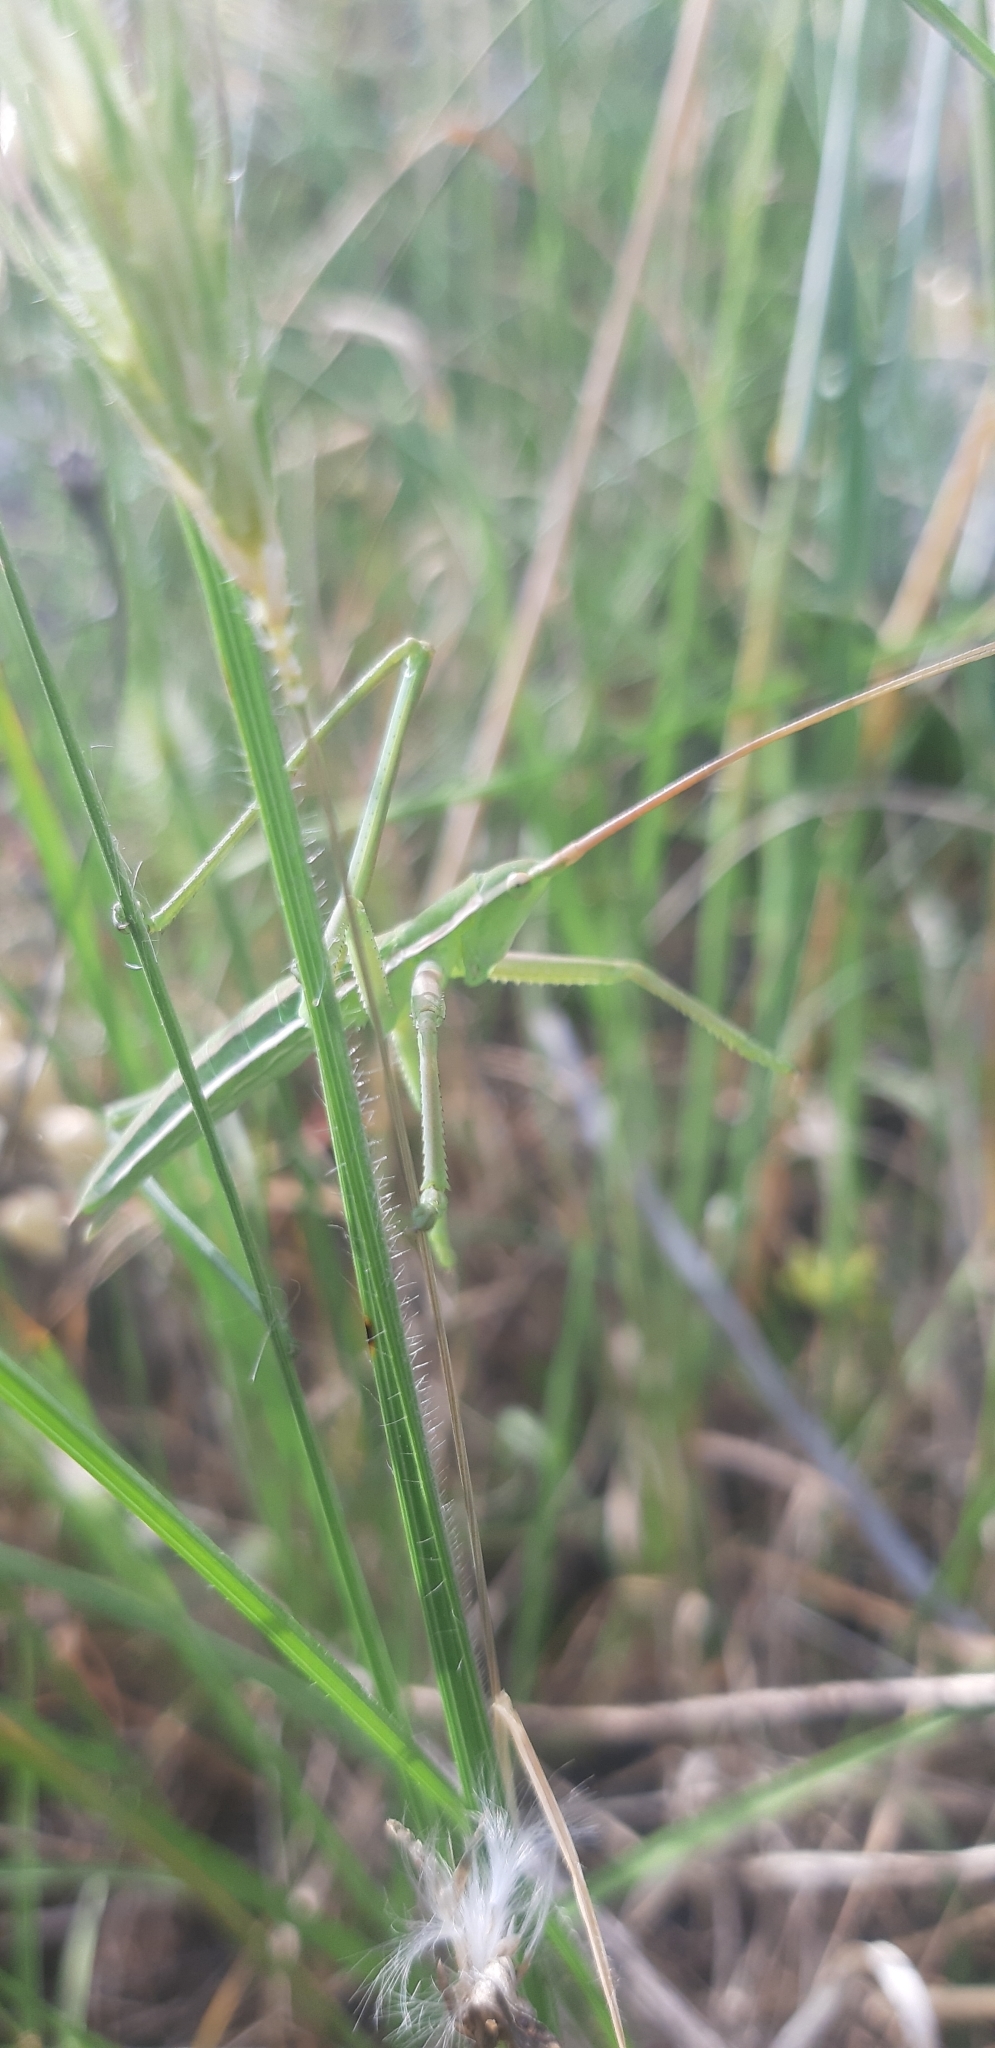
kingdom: Animalia
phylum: Arthropoda
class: Insecta
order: Orthoptera
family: Tettigoniidae
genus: Saga
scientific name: Saga pedo
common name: Common predatory bush-cricket
